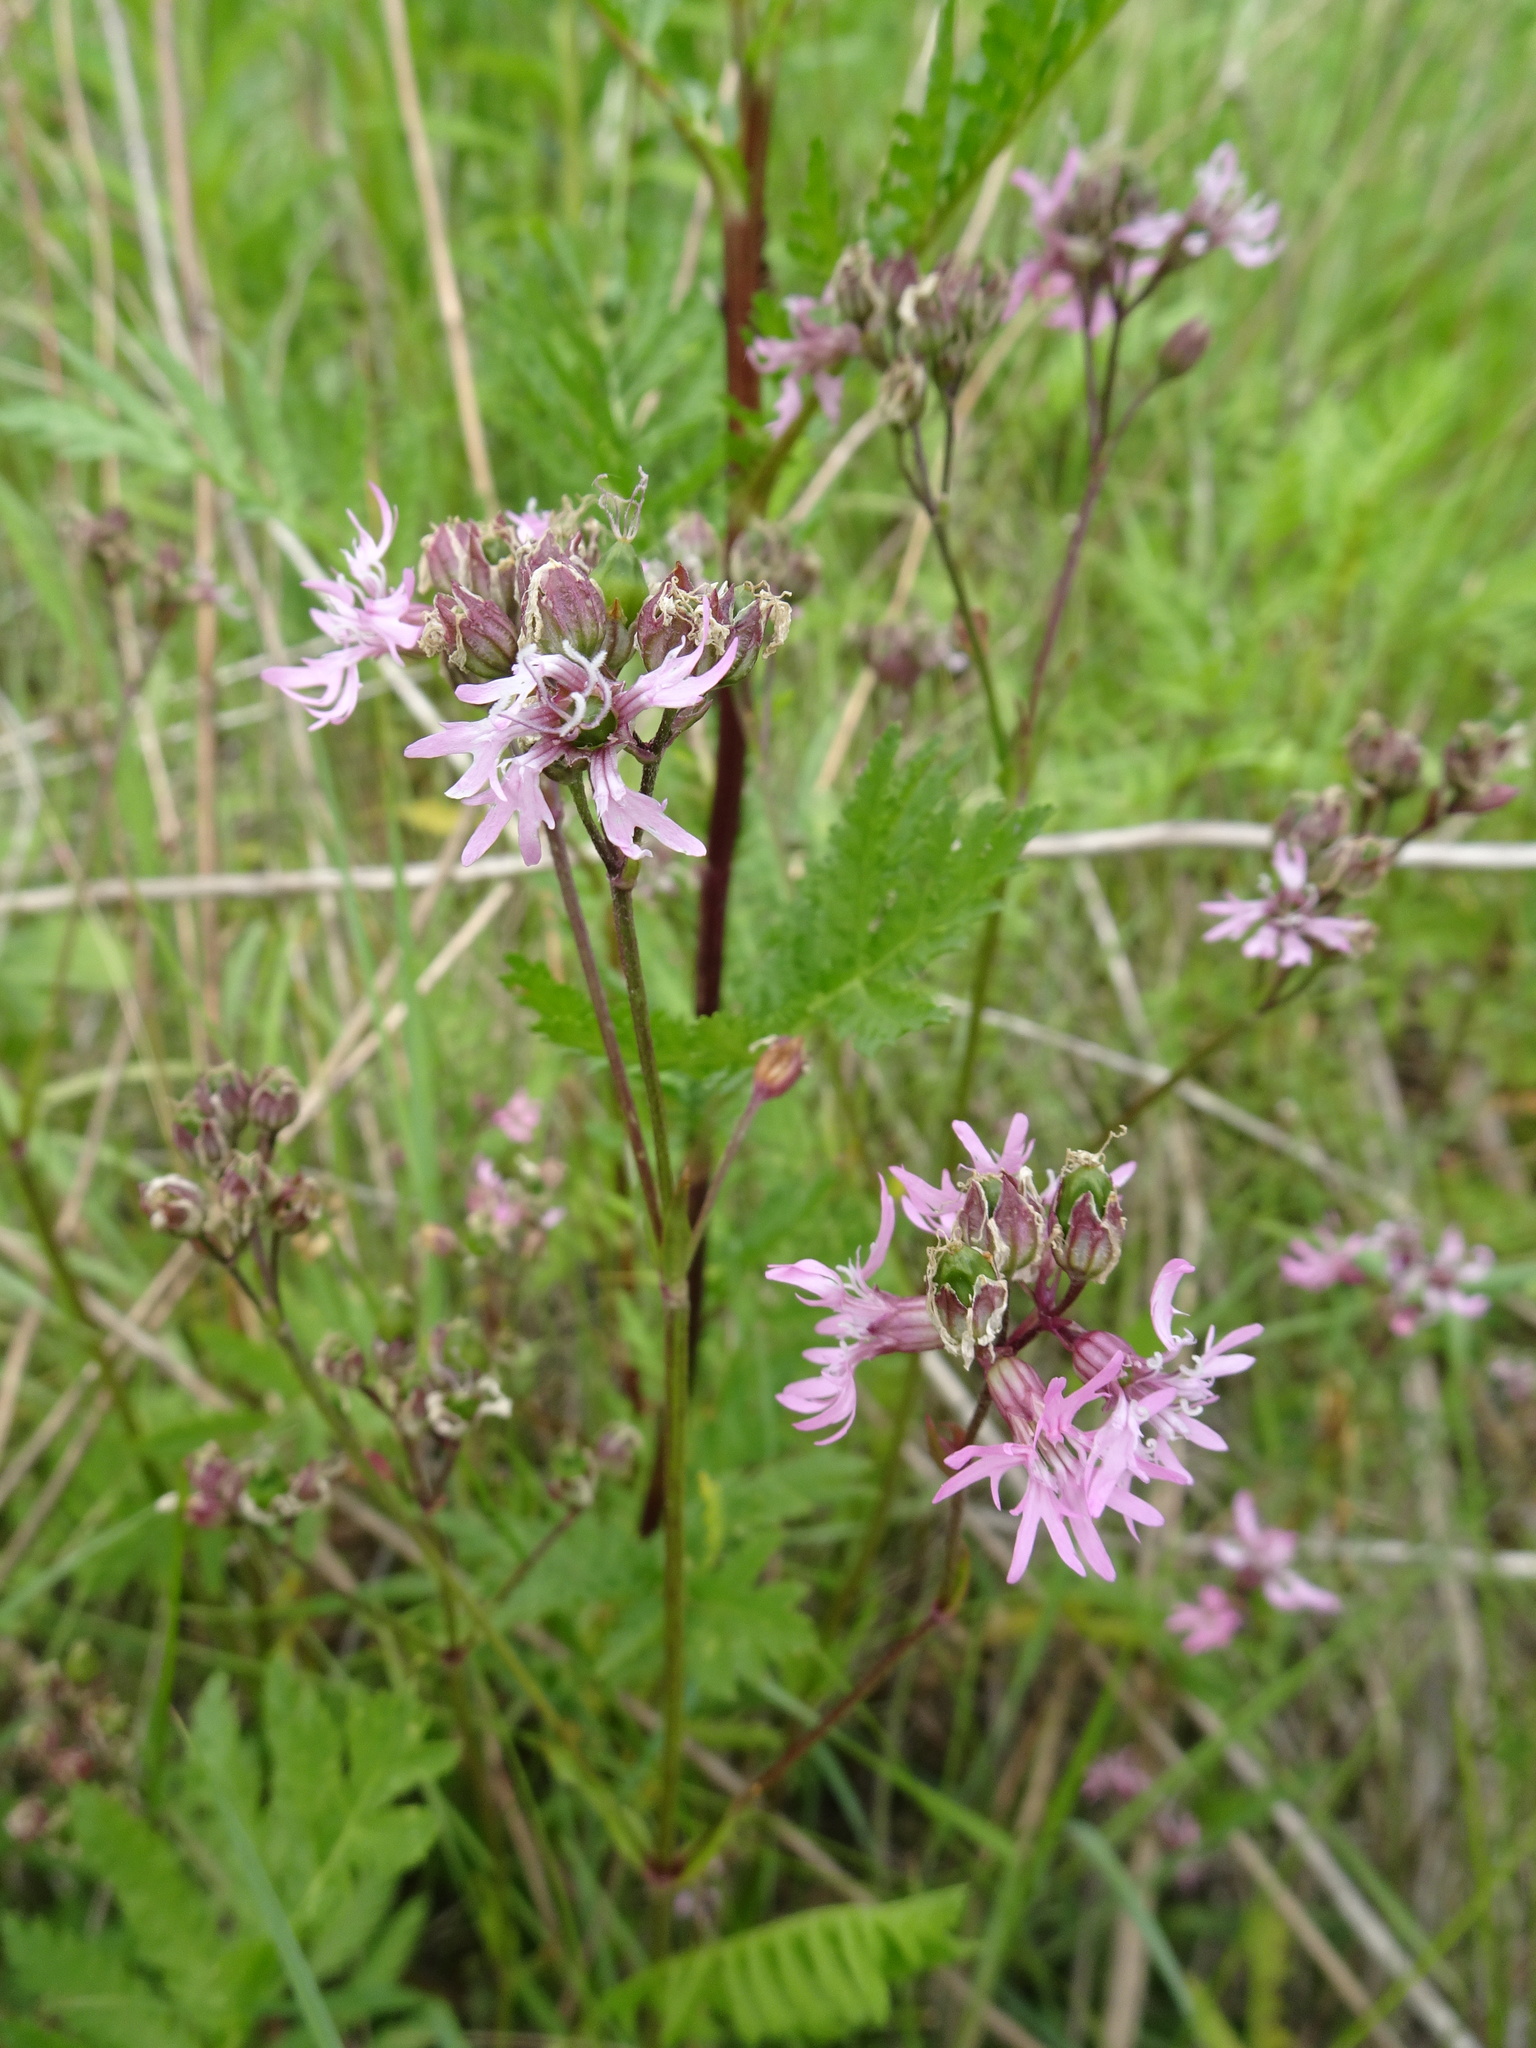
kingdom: Plantae
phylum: Tracheophyta
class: Magnoliopsida
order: Caryophyllales
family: Caryophyllaceae
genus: Silene
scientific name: Silene flos-cuculi
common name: Ragged-robin
